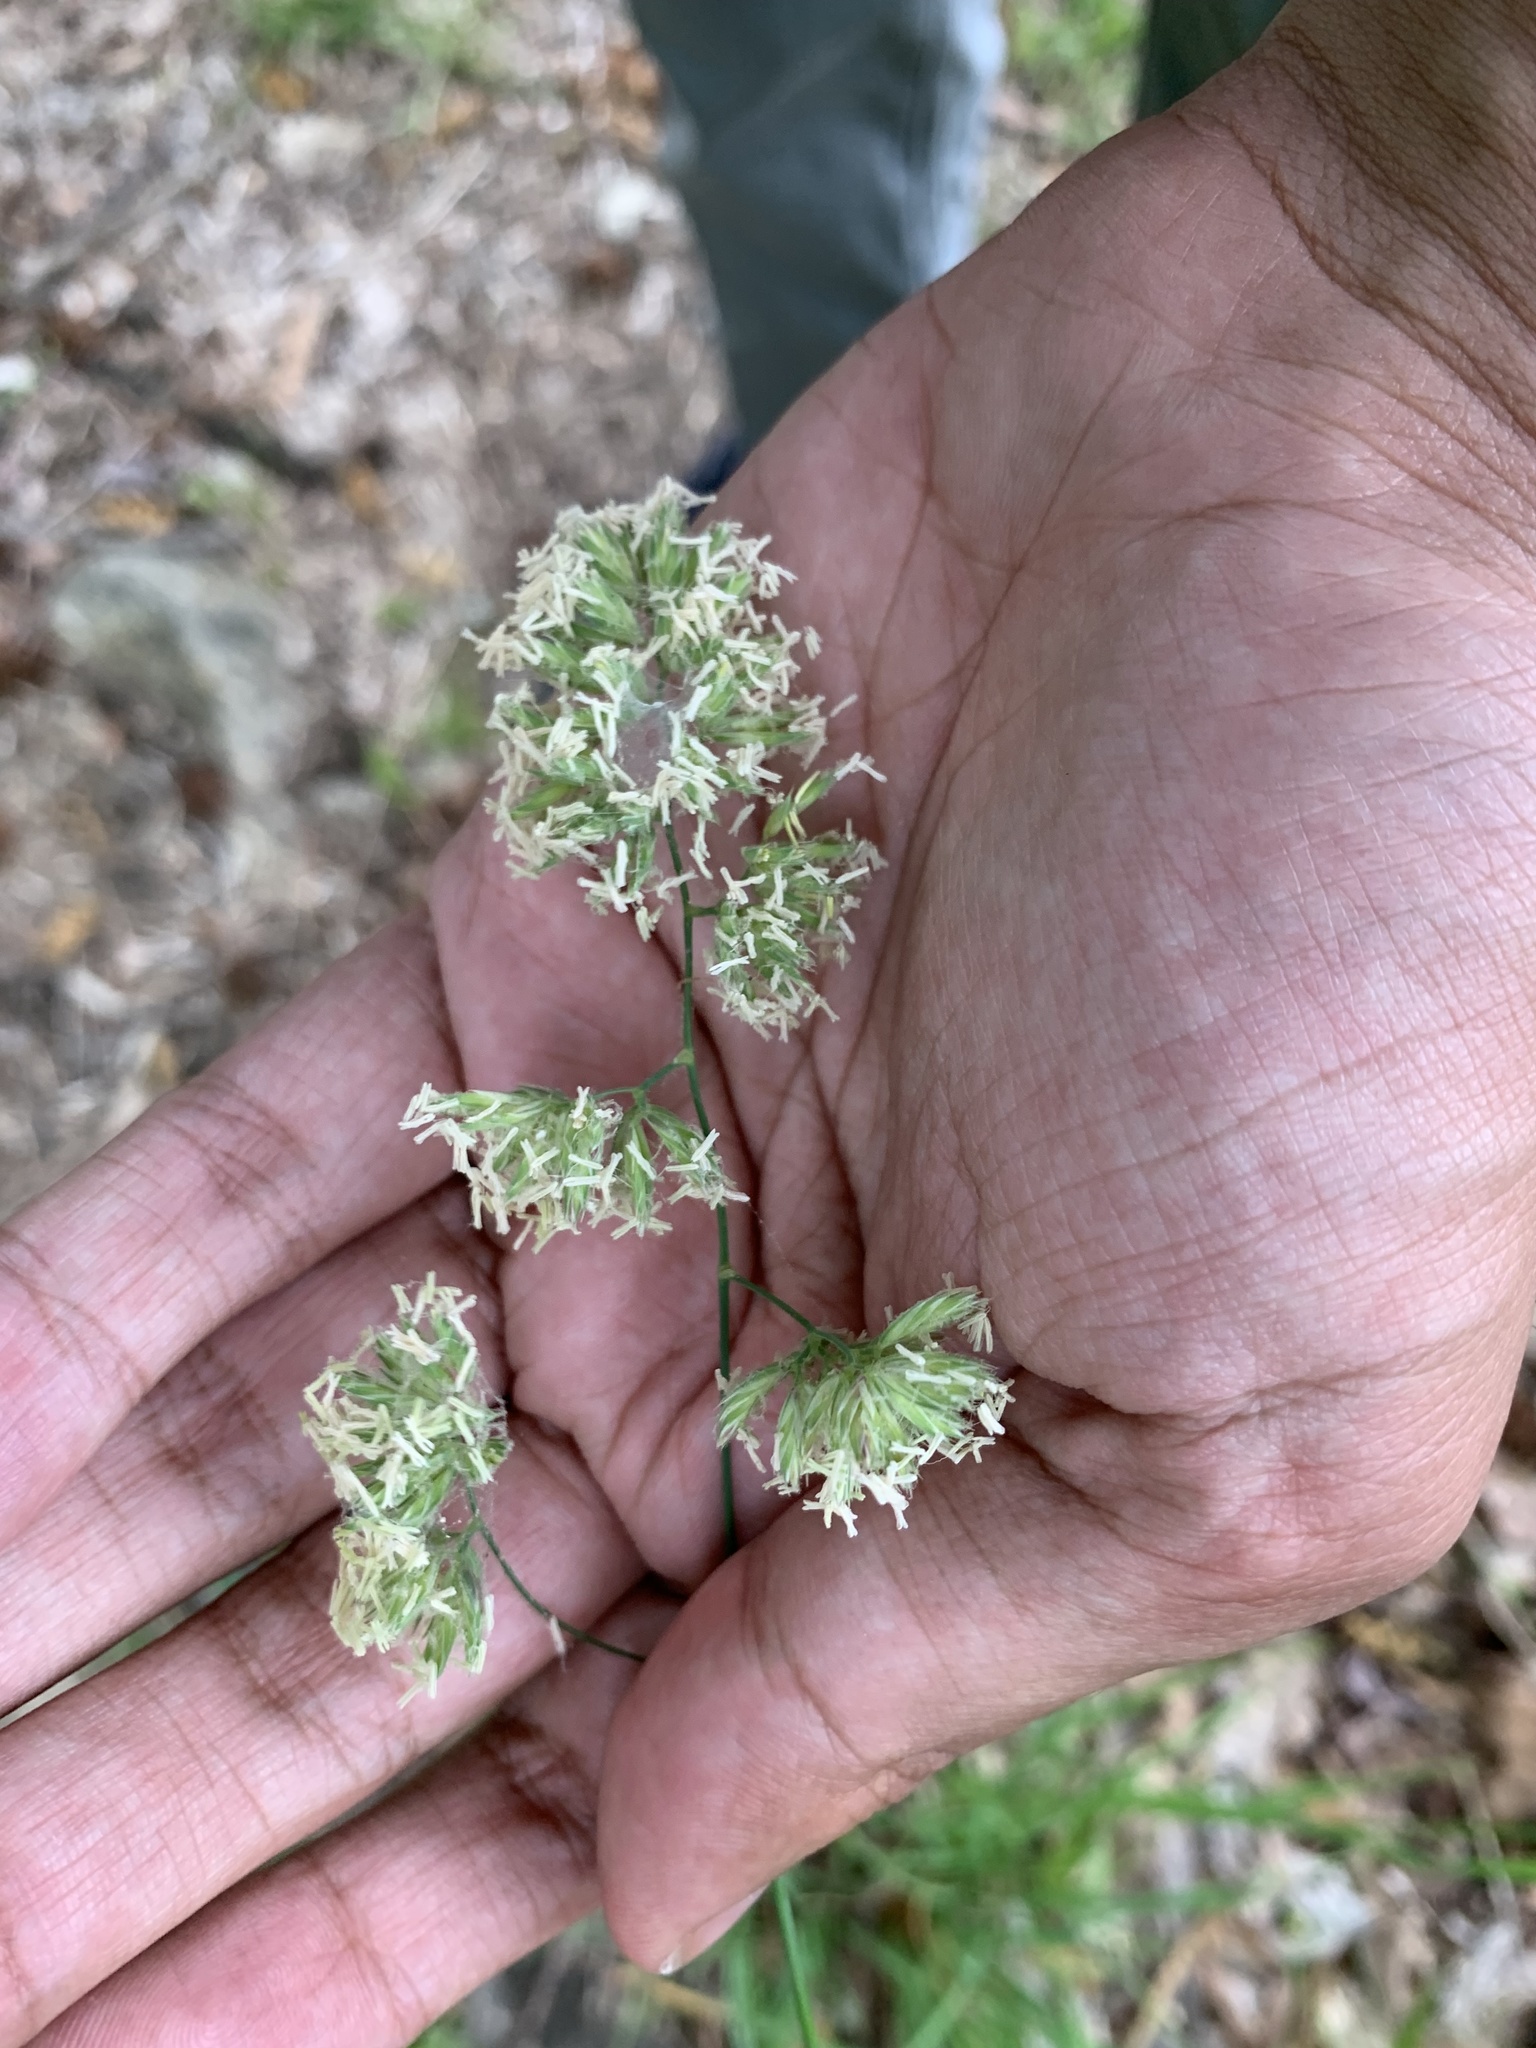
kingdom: Plantae
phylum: Tracheophyta
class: Liliopsida
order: Poales
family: Poaceae
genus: Dactylis
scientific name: Dactylis glomerata
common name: Orchardgrass
